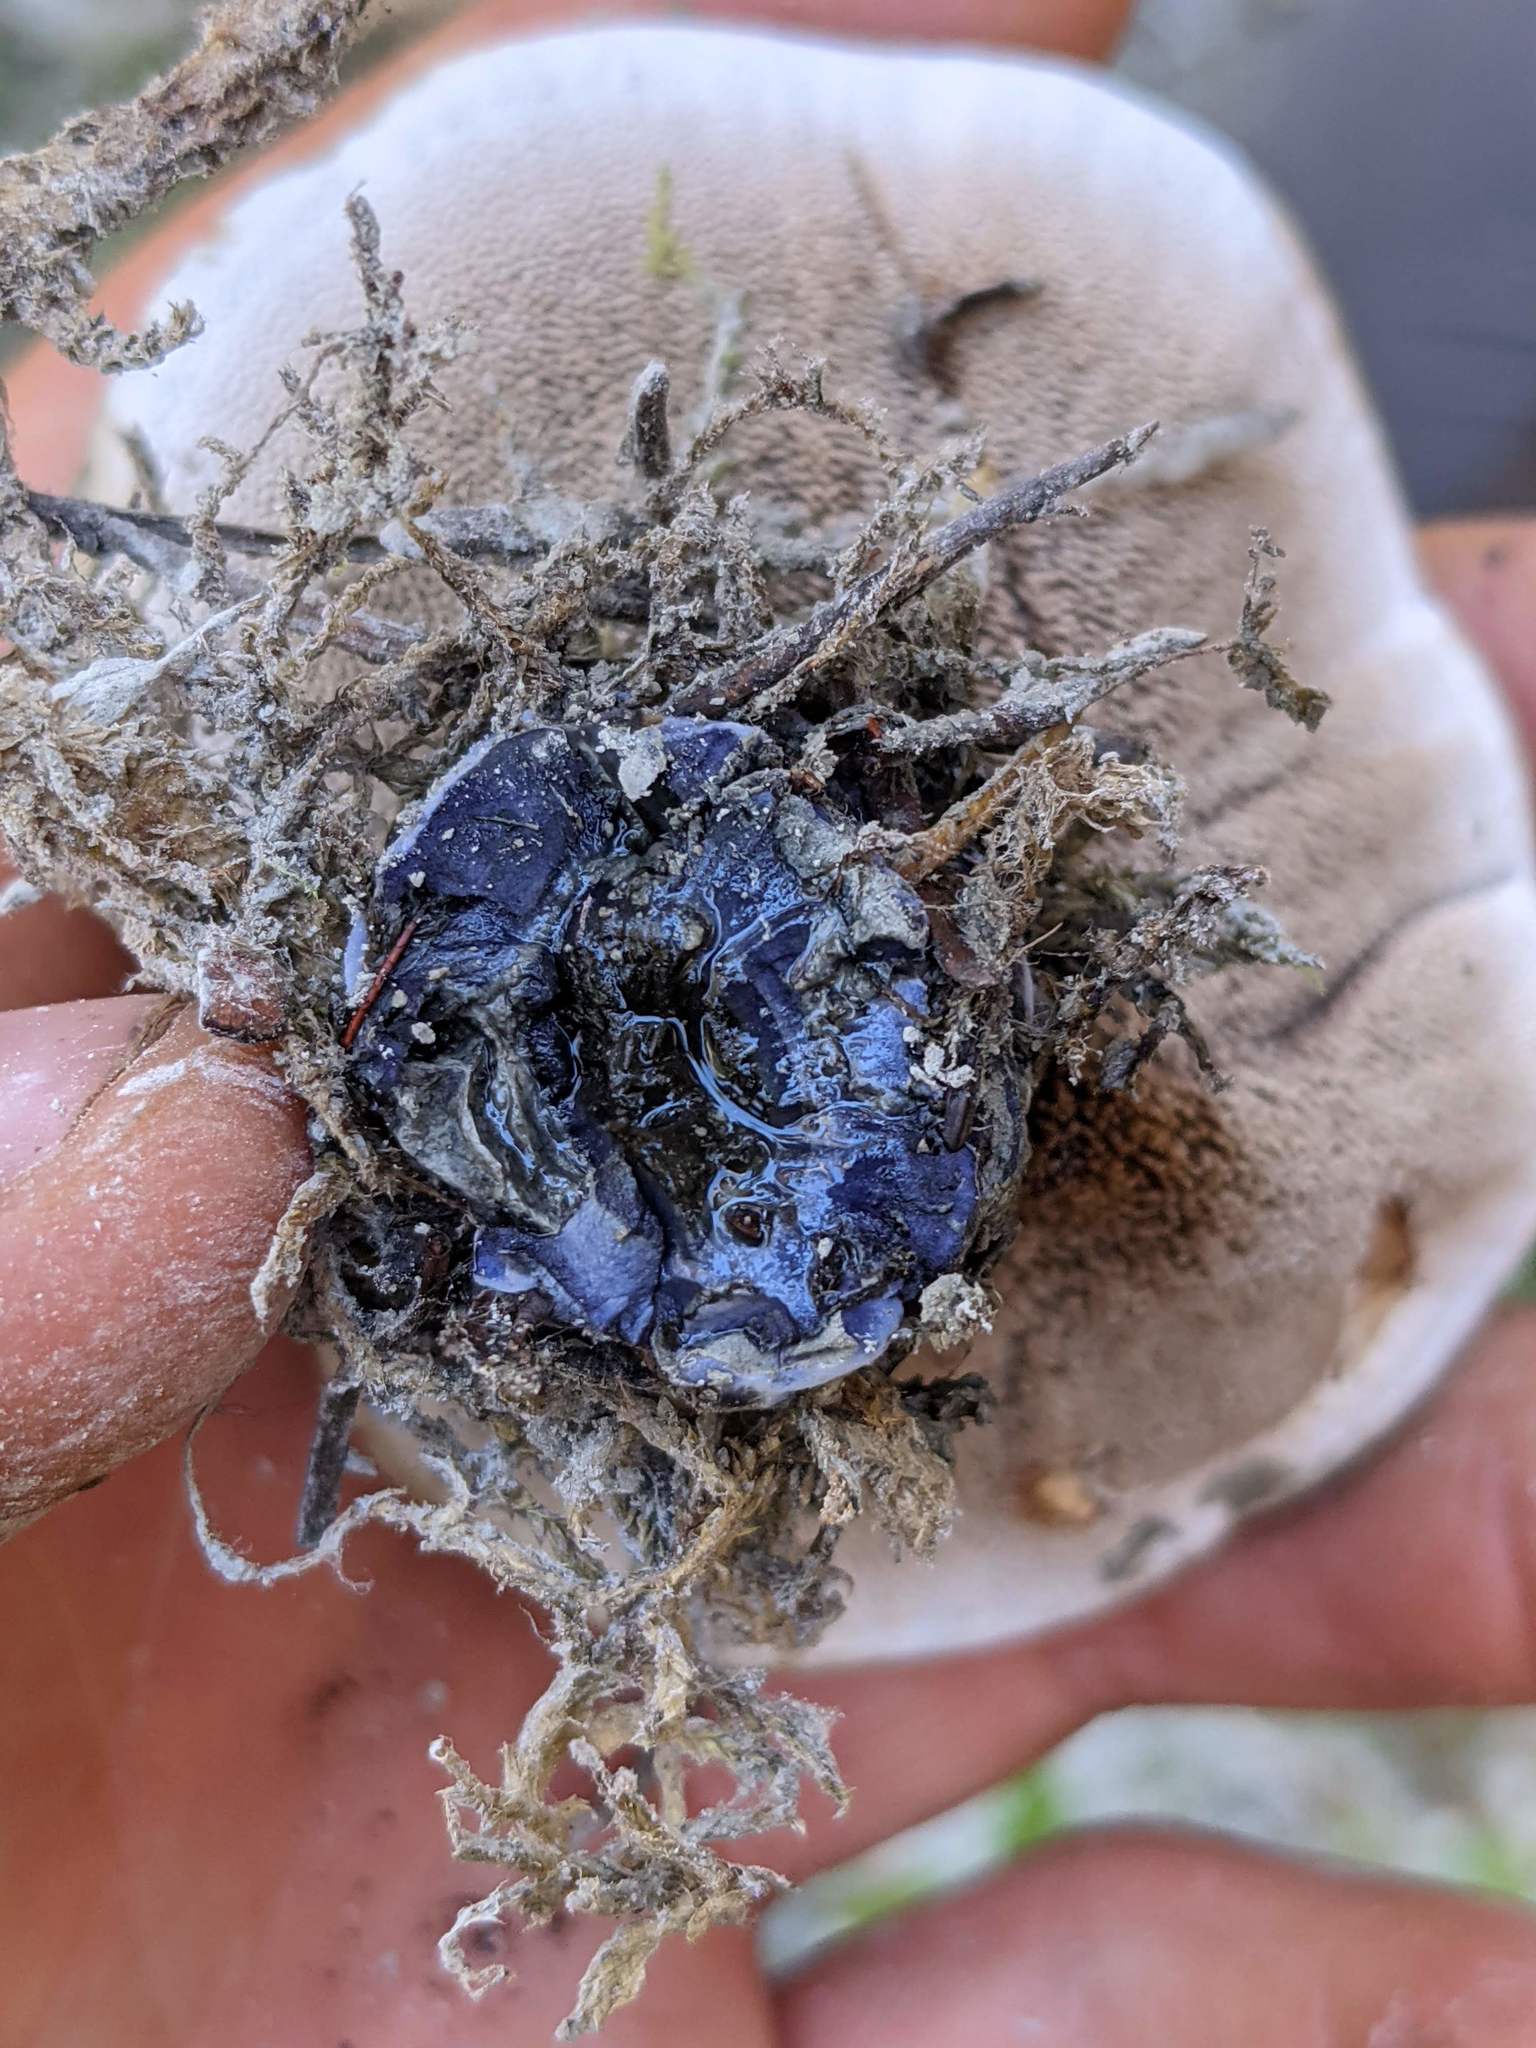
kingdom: Fungi
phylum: Basidiomycota
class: Agaricomycetes
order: Thelephorales
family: Bankeraceae
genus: Hydnellum
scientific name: Hydnellum suaveolens
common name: Sweetgrass hydnellum
